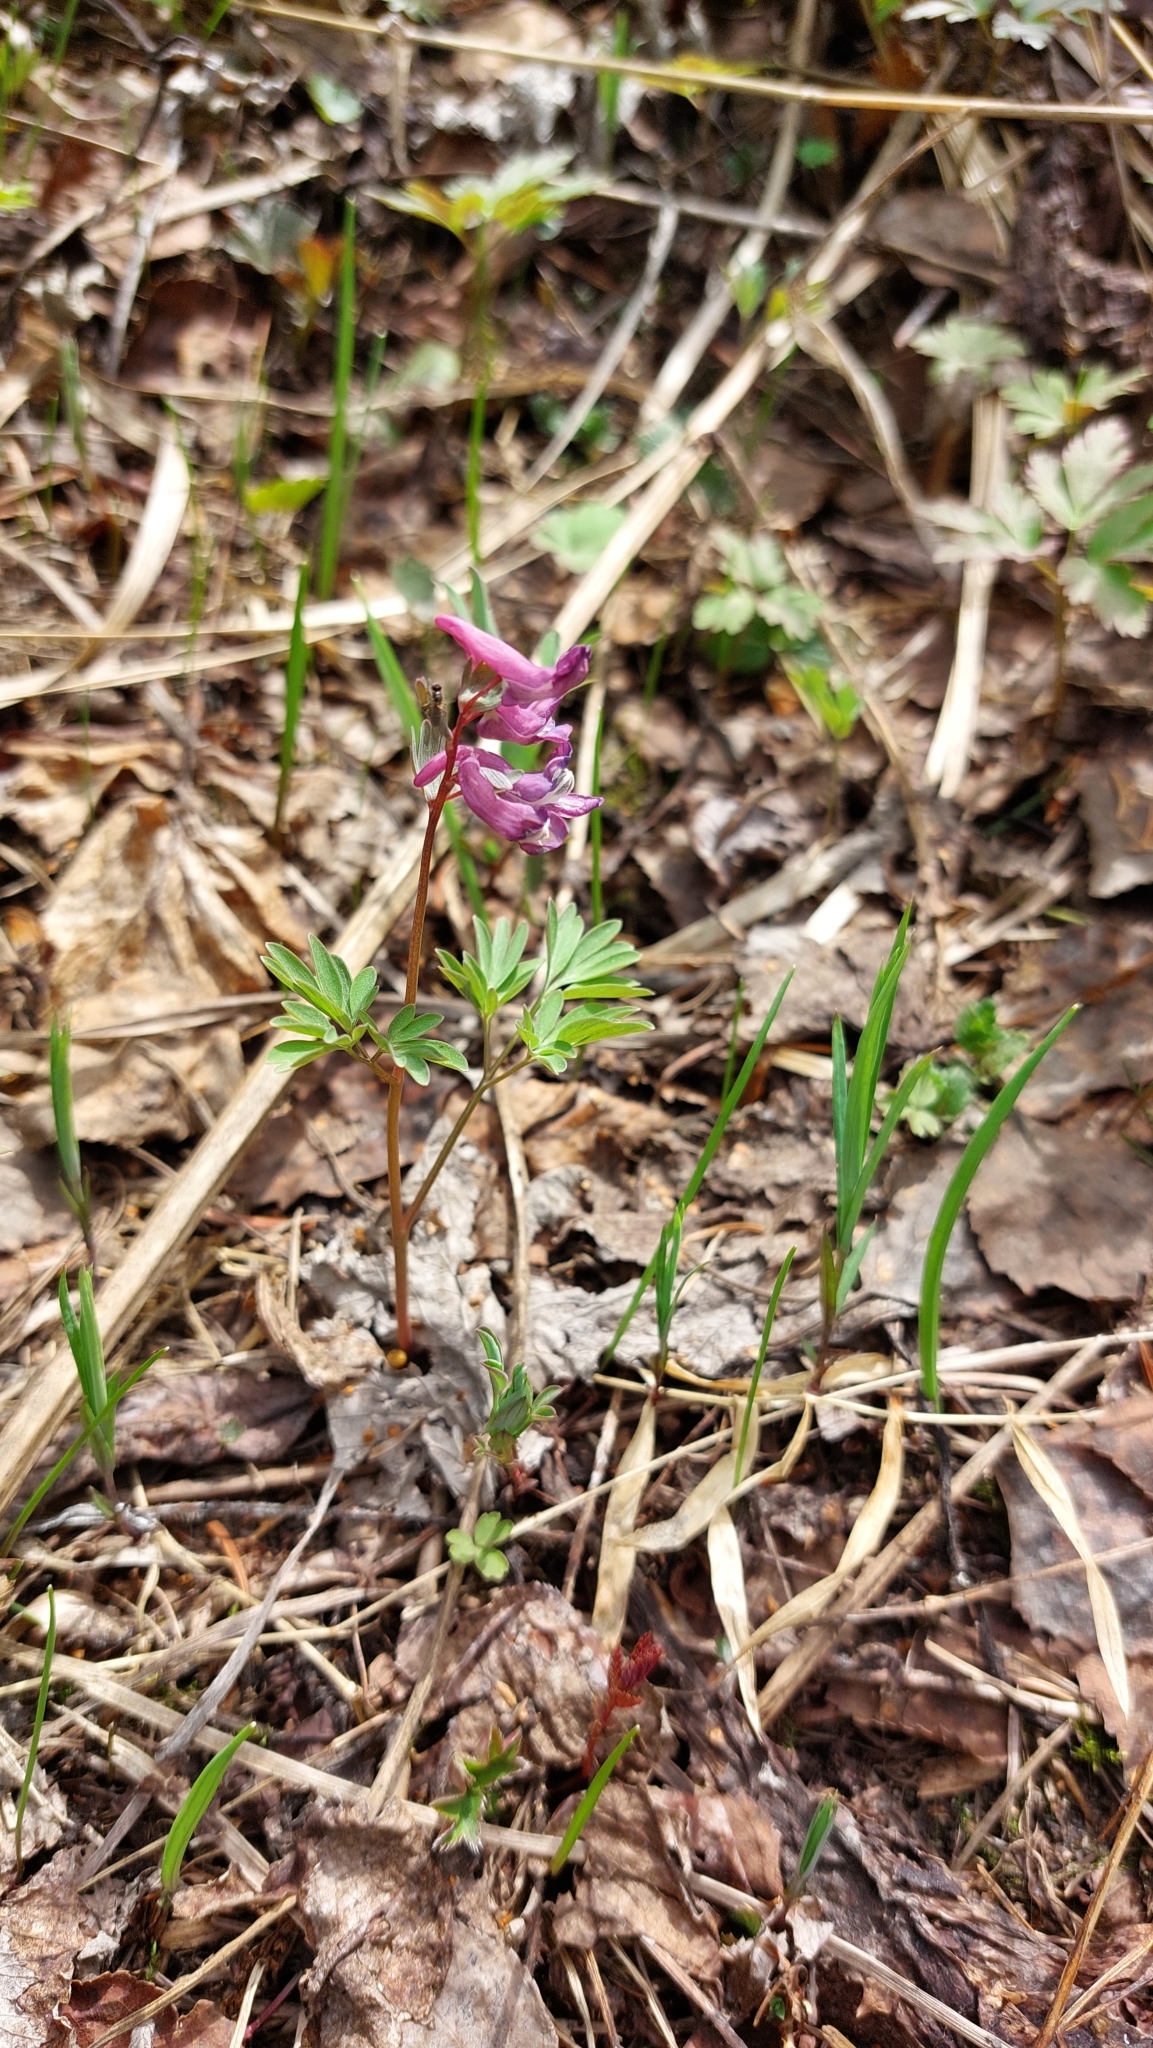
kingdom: Plantae
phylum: Tracheophyta
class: Magnoliopsida
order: Ranunculales
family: Papaveraceae
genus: Corydalis
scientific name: Corydalis solida
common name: Bird-in-a-bush
